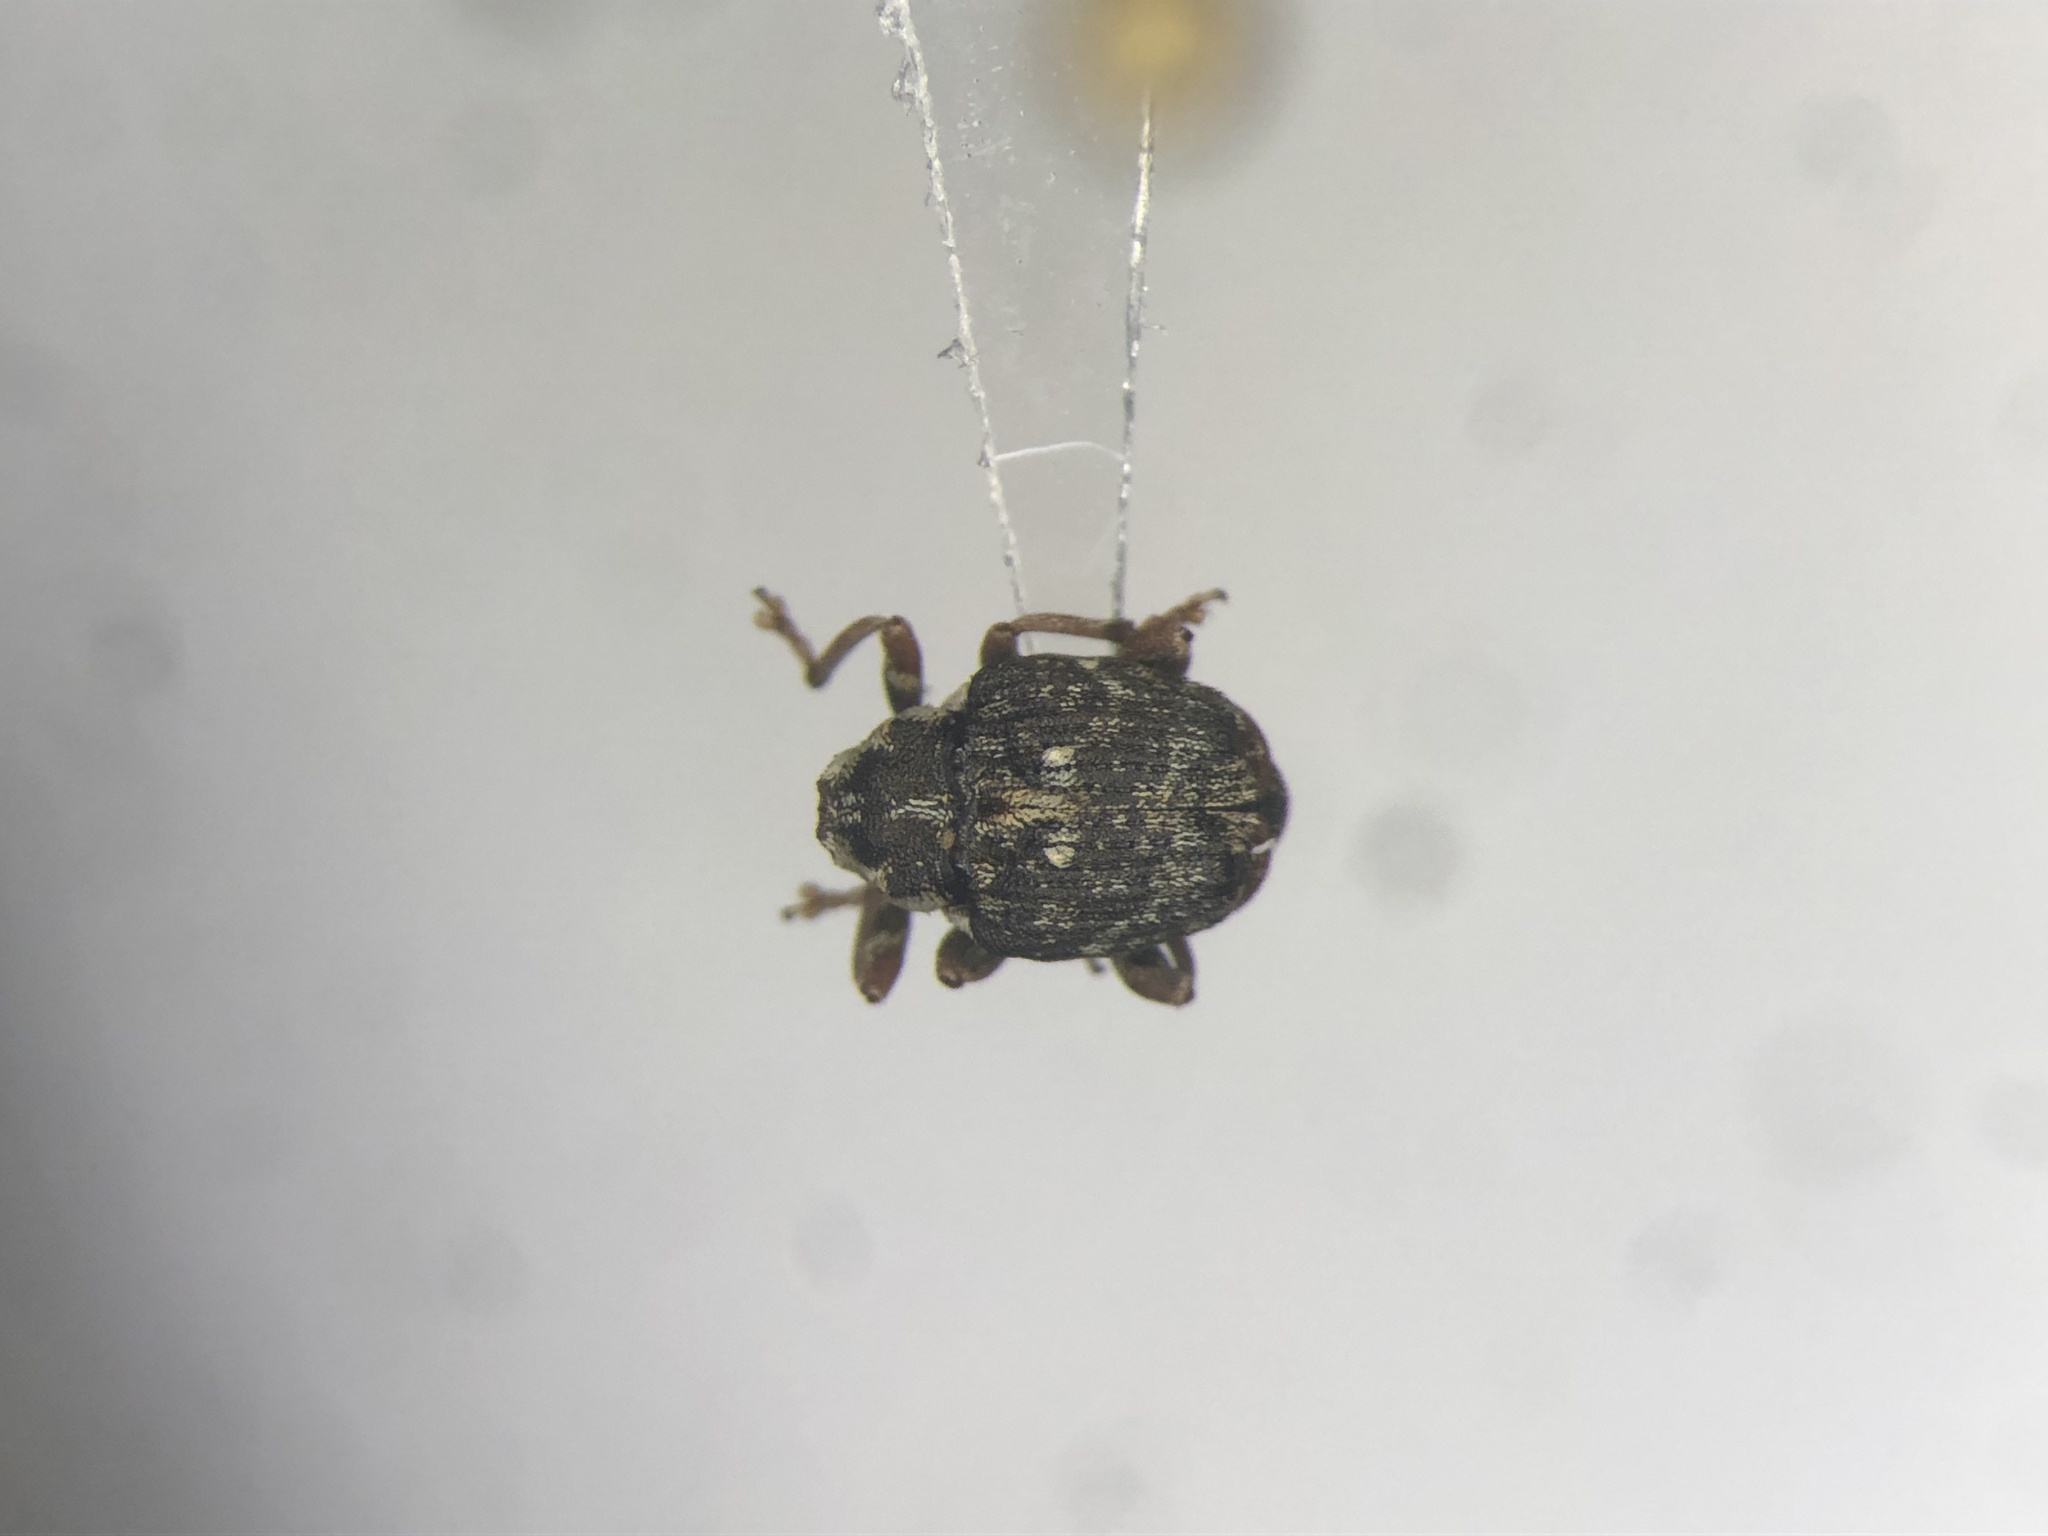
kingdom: Animalia
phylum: Arthropoda
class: Insecta
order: Coleoptera
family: Curculionidae
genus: Dietzella
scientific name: Dietzella zimmermannii
